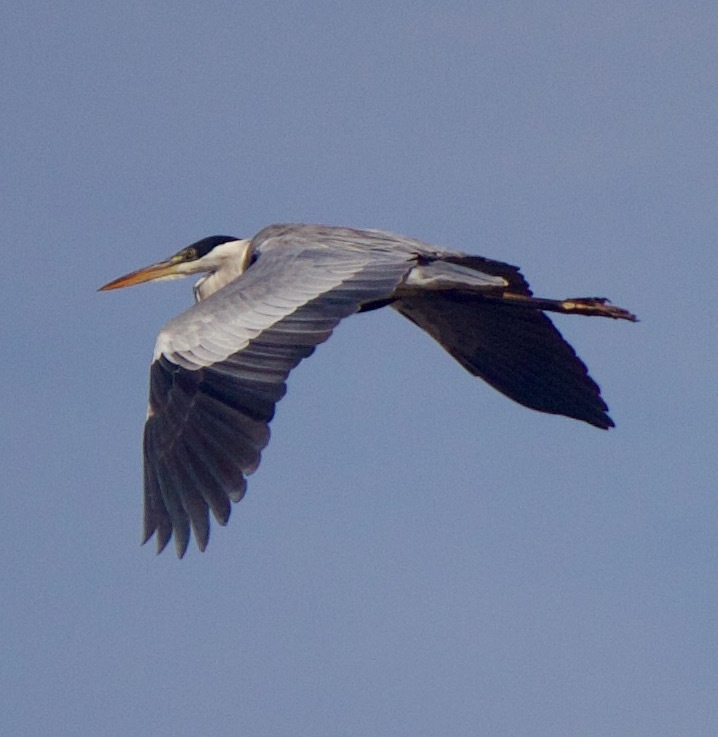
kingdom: Animalia
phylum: Chordata
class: Aves
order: Pelecaniformes
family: Ardeidae
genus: Ardea
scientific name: Ardea cocoi
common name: Cocoi heron
